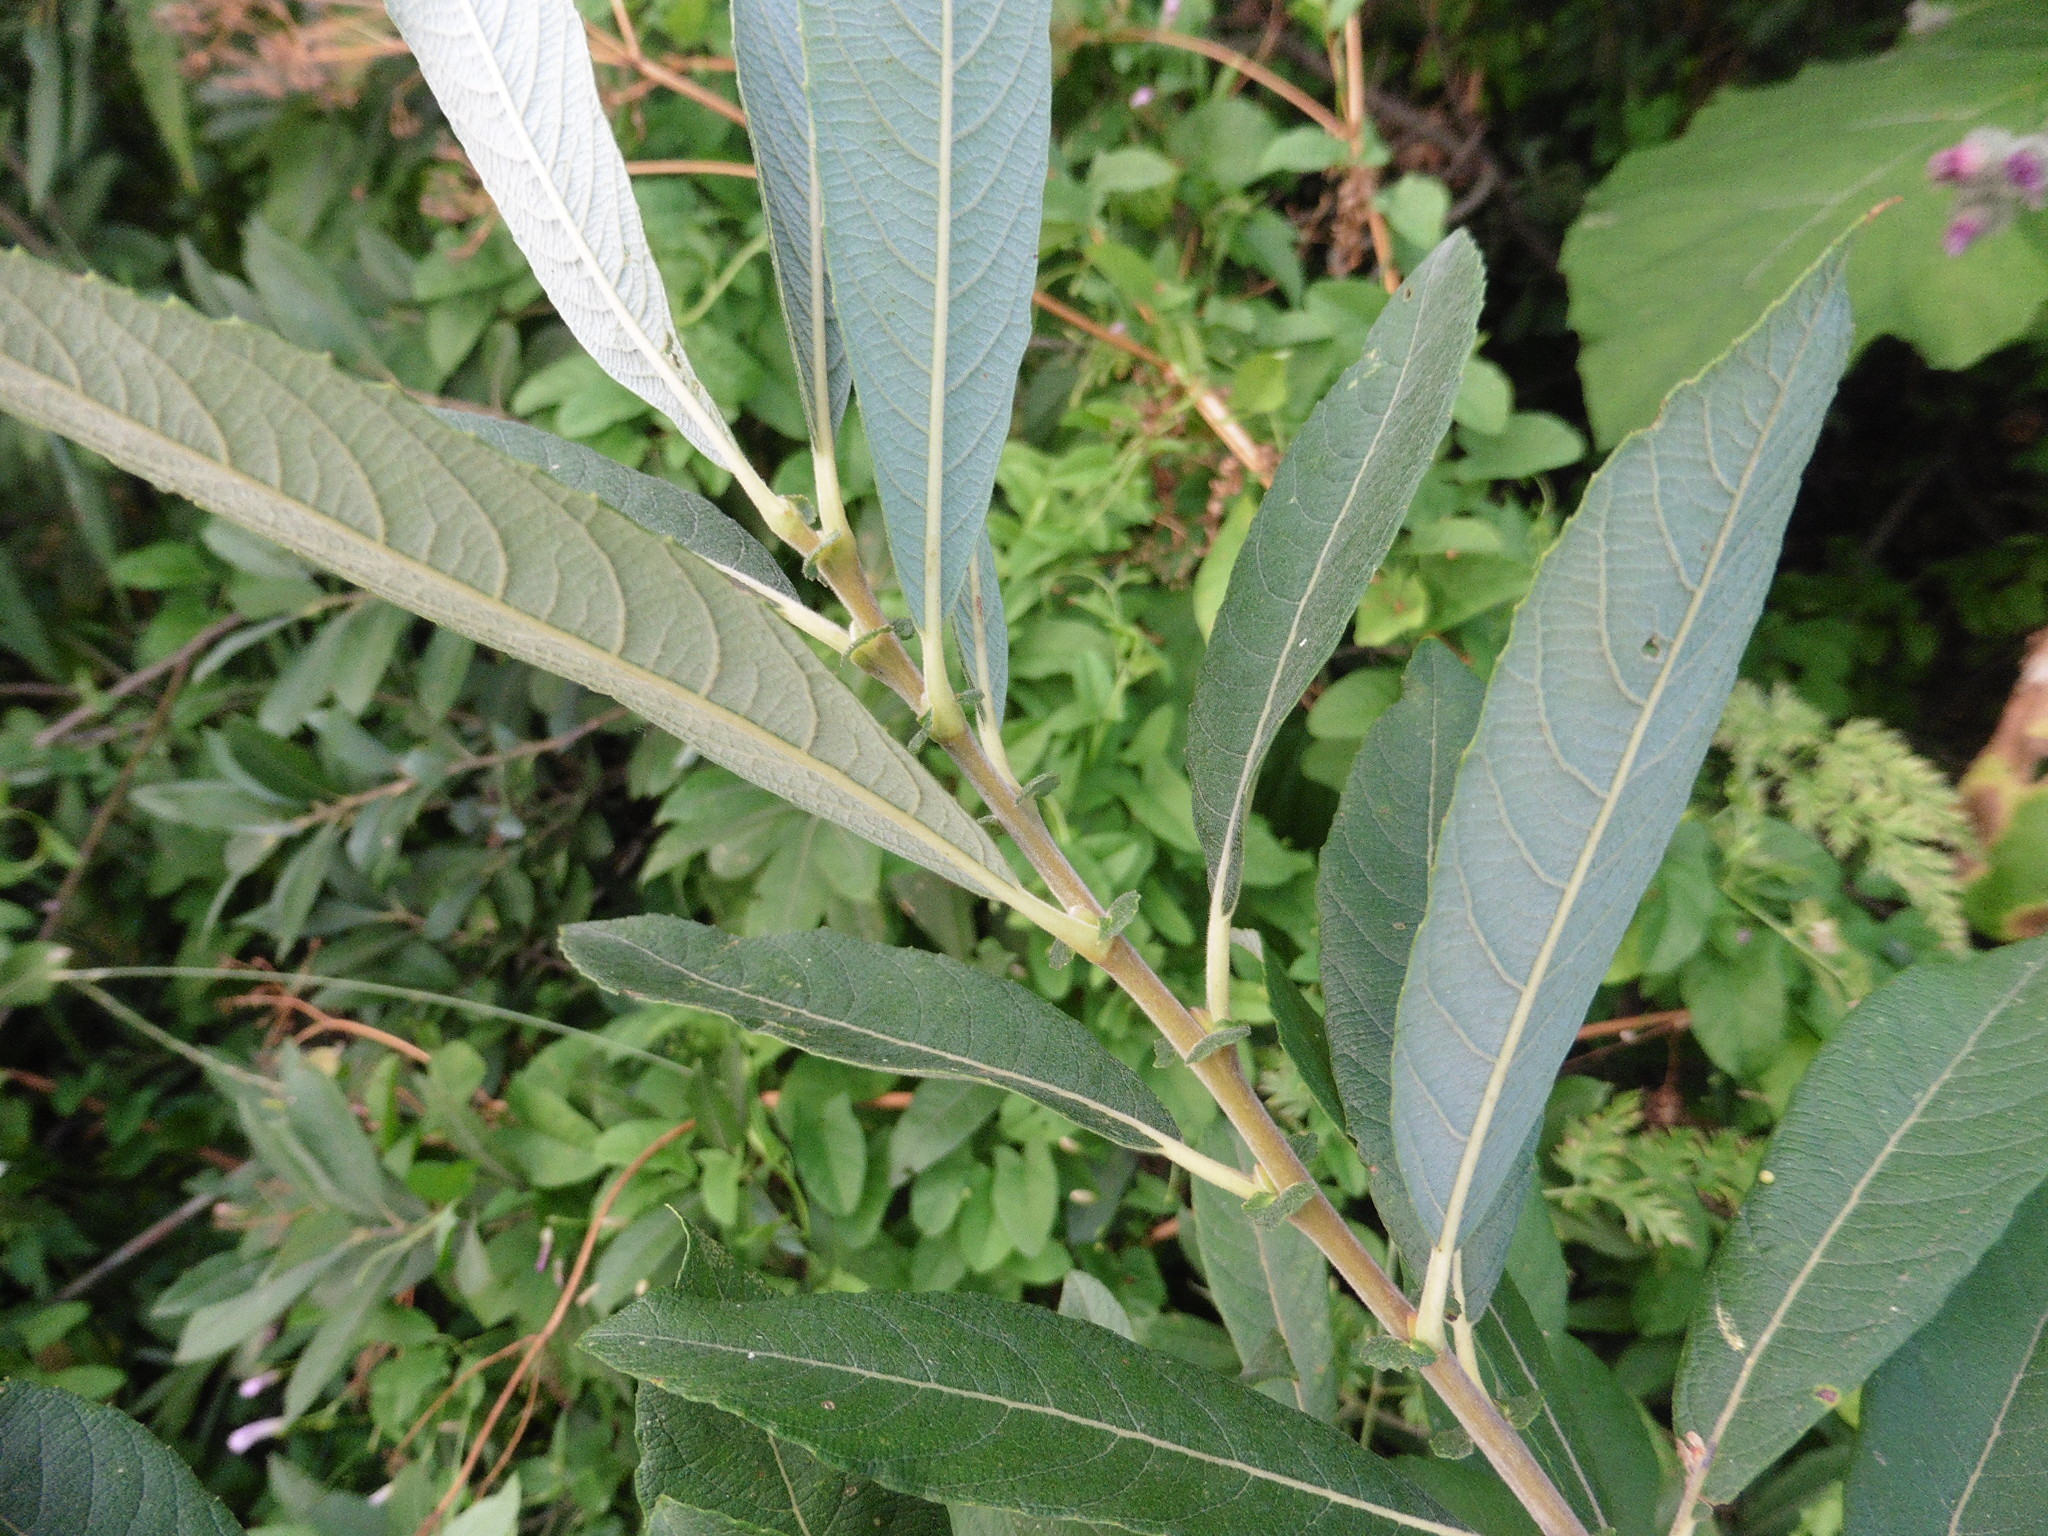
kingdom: Plantae
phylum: Tracheophyta
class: Magnoliopsida
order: Malpighiales
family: Salicaceae
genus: Salix
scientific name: Salix cinerea
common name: Common sallow
